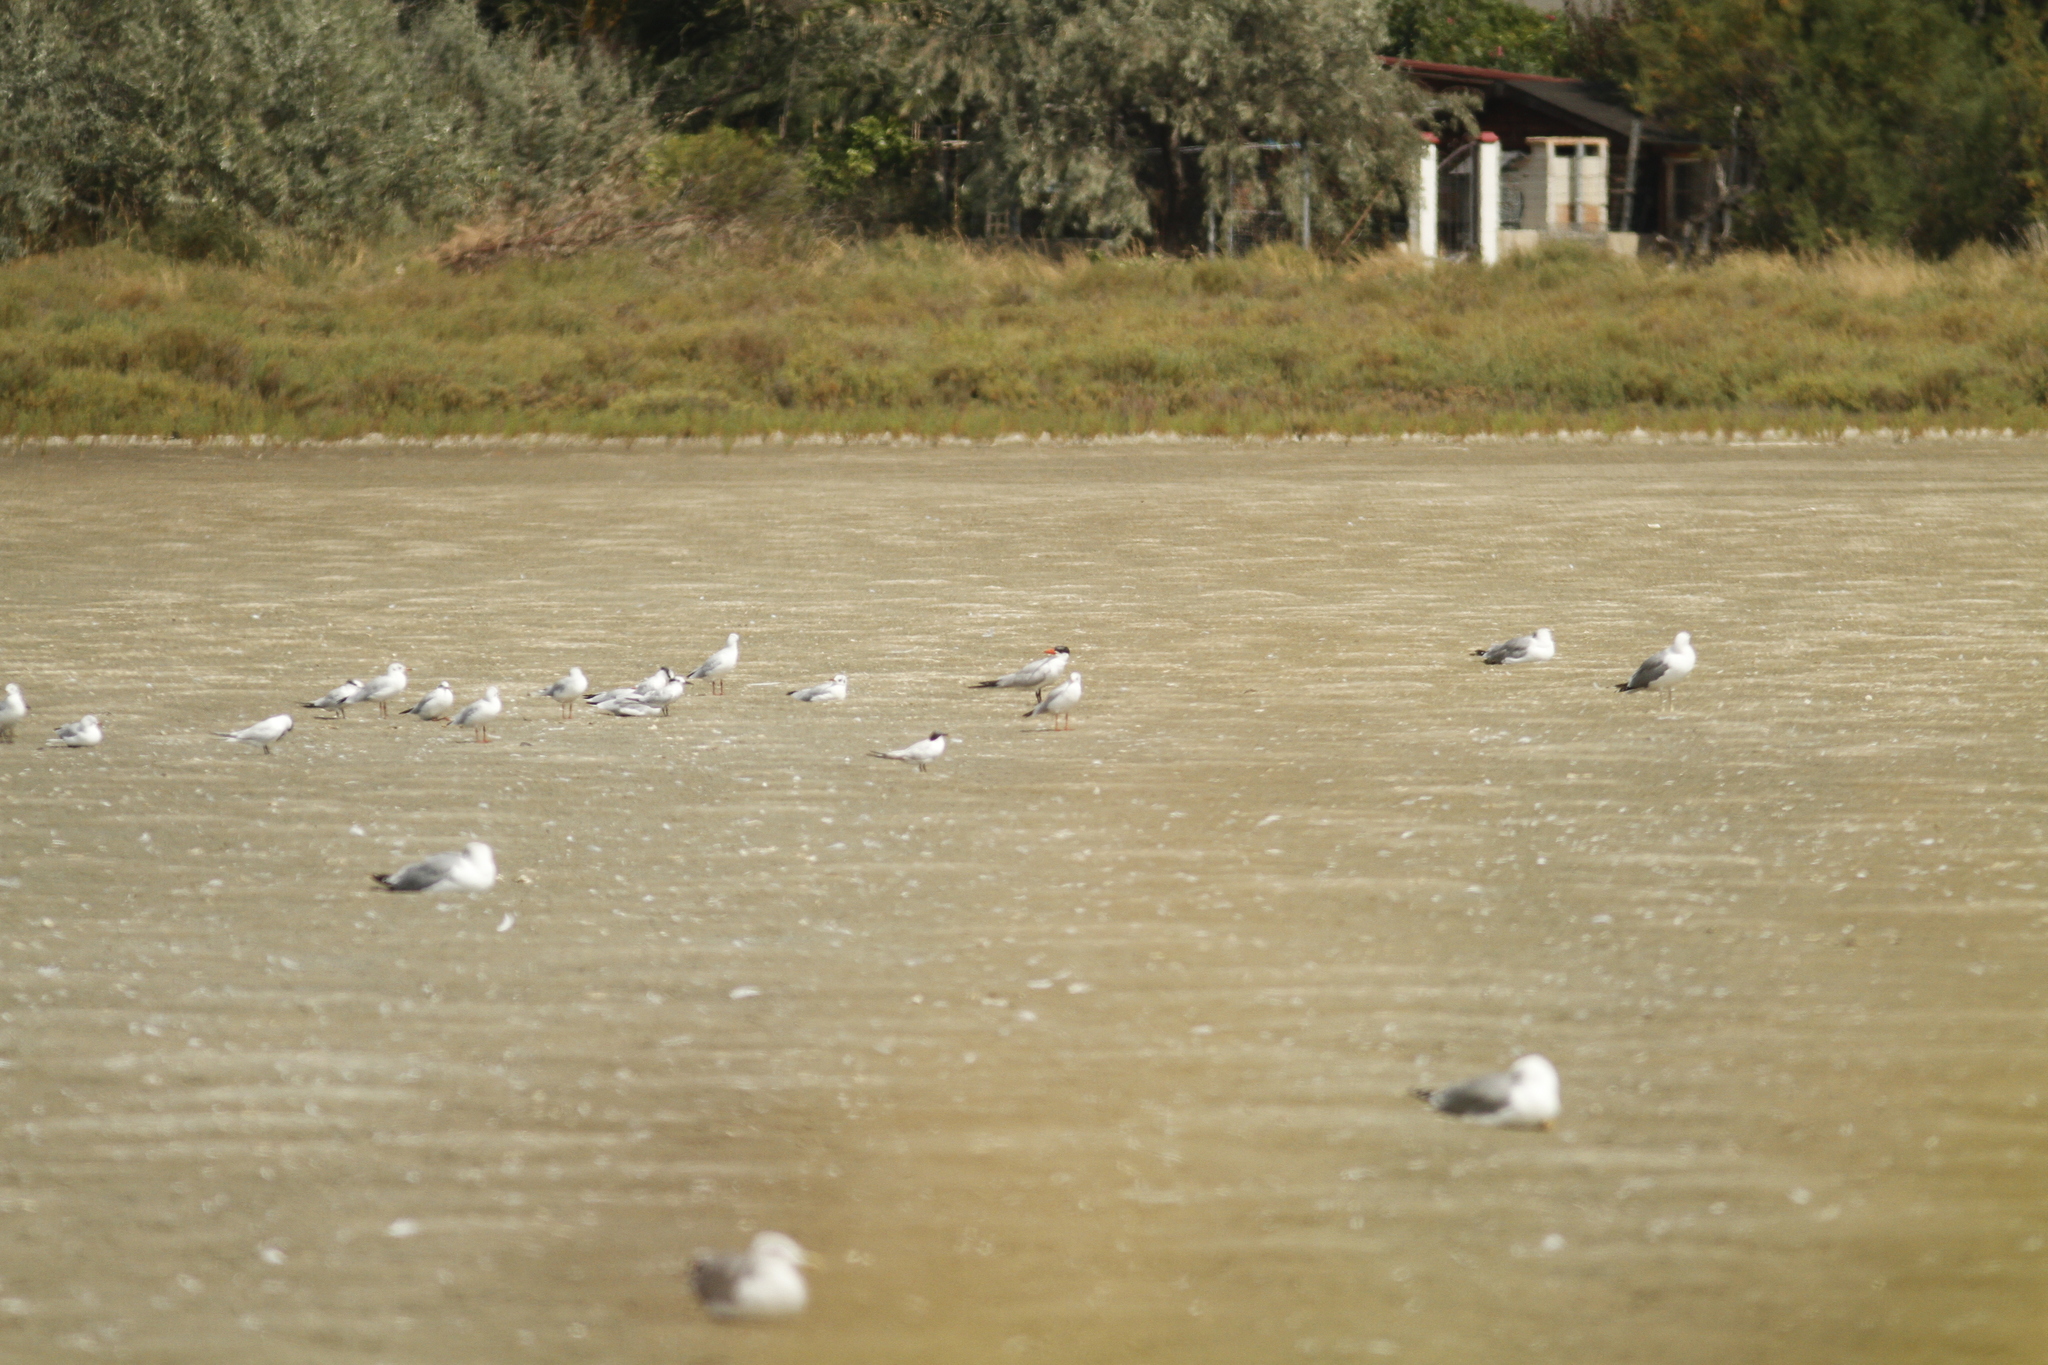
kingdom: Animalia
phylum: Chordata
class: Aves
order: Charadriiformes
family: Laridae
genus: Hydroprogne
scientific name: Hydroprogne caspia
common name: Caspian tern
